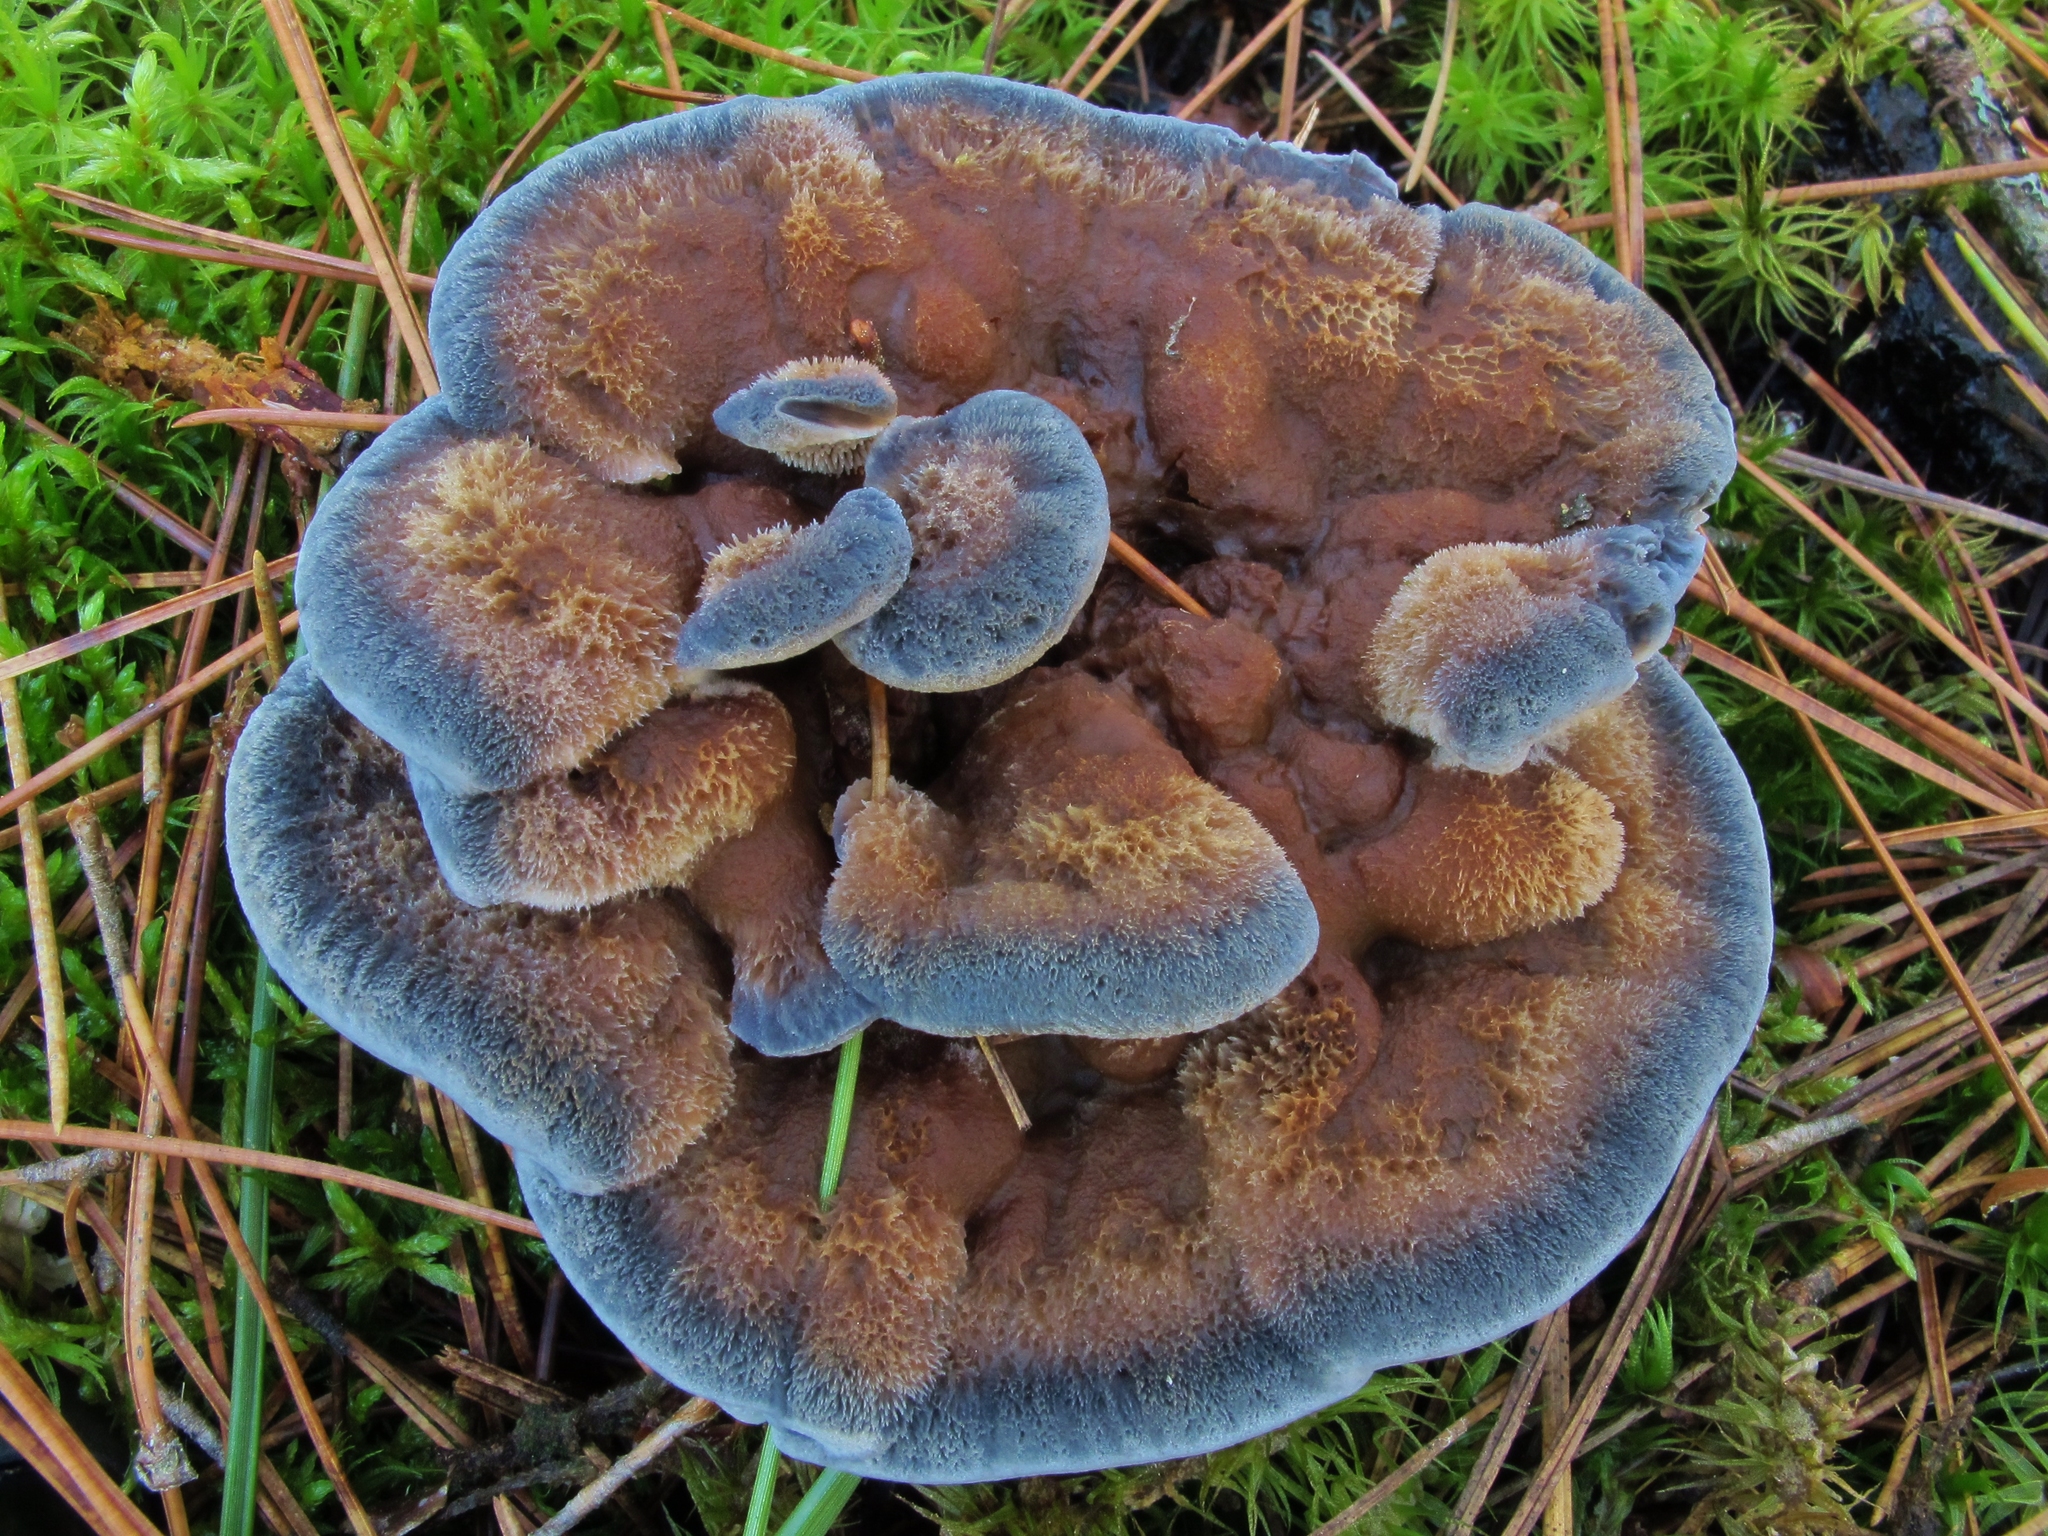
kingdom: Fungi
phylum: Basidiomycota
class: Agaricomycetes
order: Thelephorales
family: Bankeraceae
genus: Hydnellum
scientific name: Hydnellum caeruleum
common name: Blue corky spine fungus
